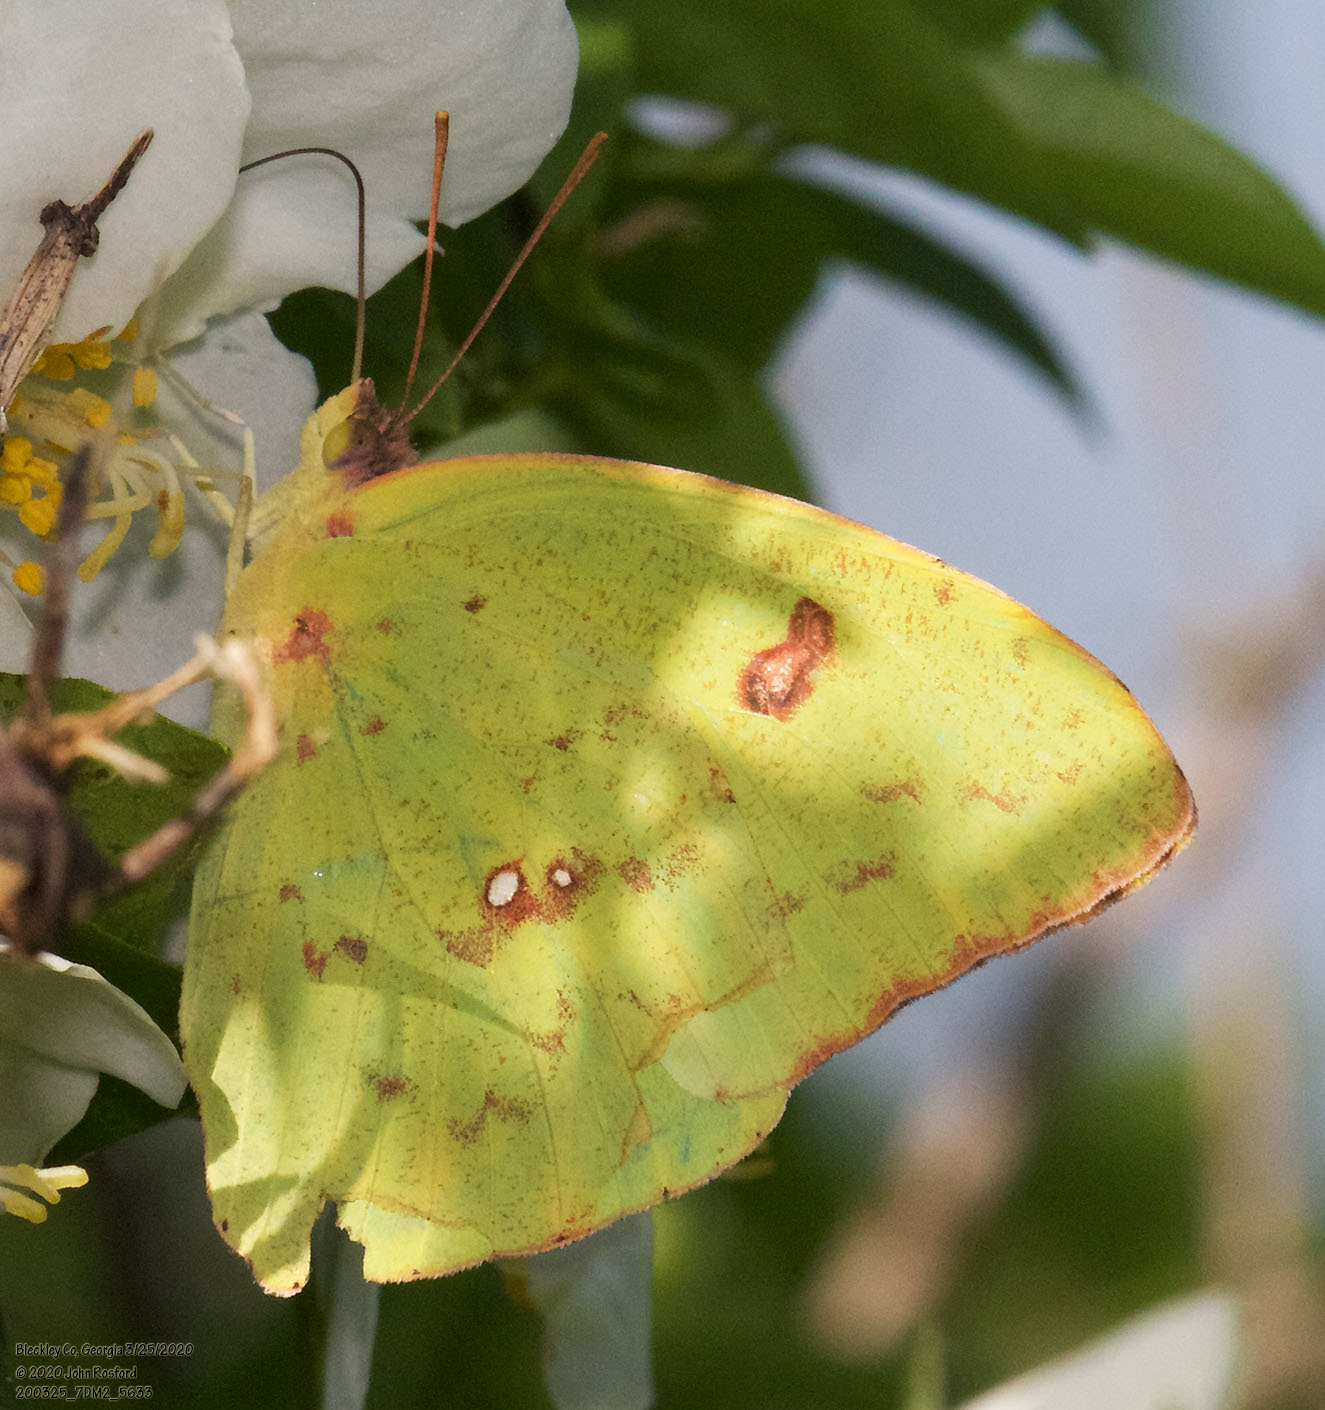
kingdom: Animalia
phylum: Arthropoda
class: Insecta
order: Lepidoptera
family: Pieridae
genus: Phoebis
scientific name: Phoebis sennae
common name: Cloudless sulphur
